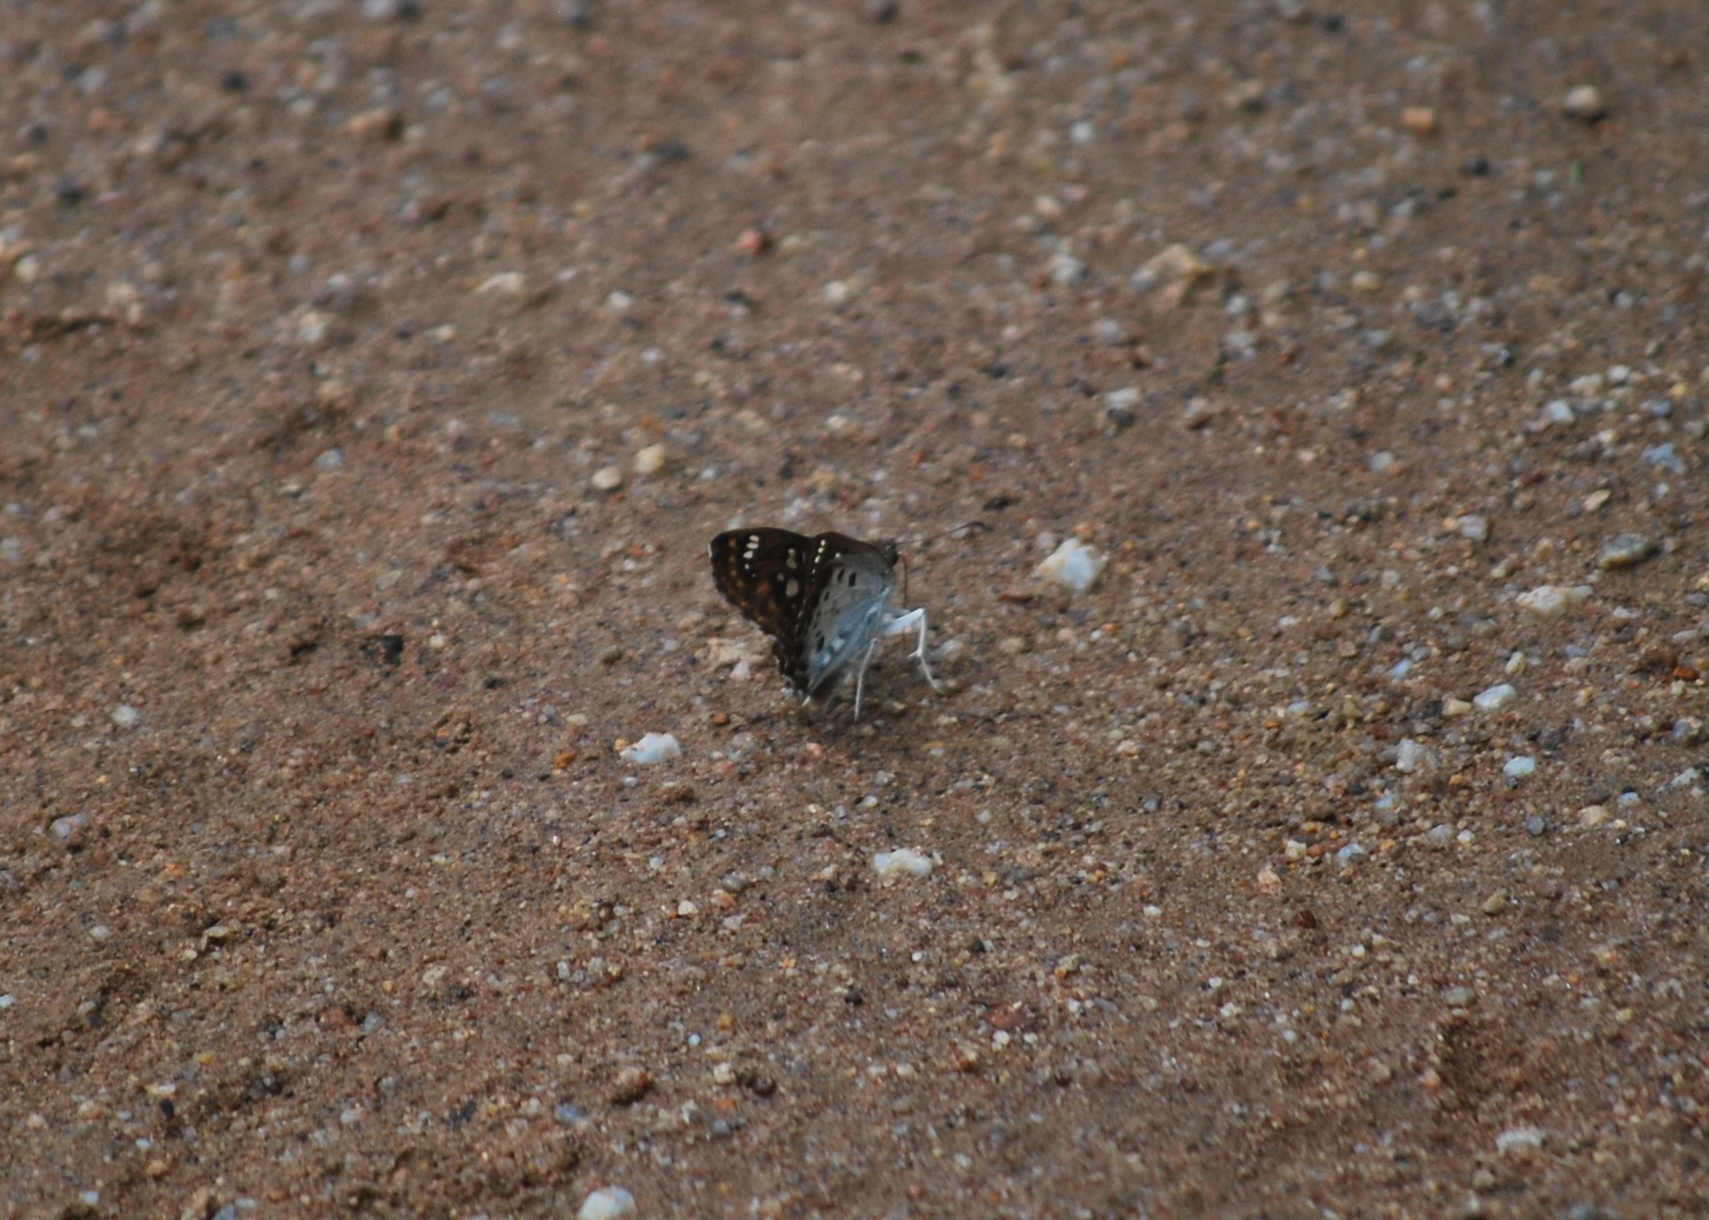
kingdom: Animalia
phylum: Arthropoda
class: Insecta
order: Lepidoptera
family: Hesperiidae
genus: Caprona
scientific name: Caprona ransonnettii
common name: Golden angle
